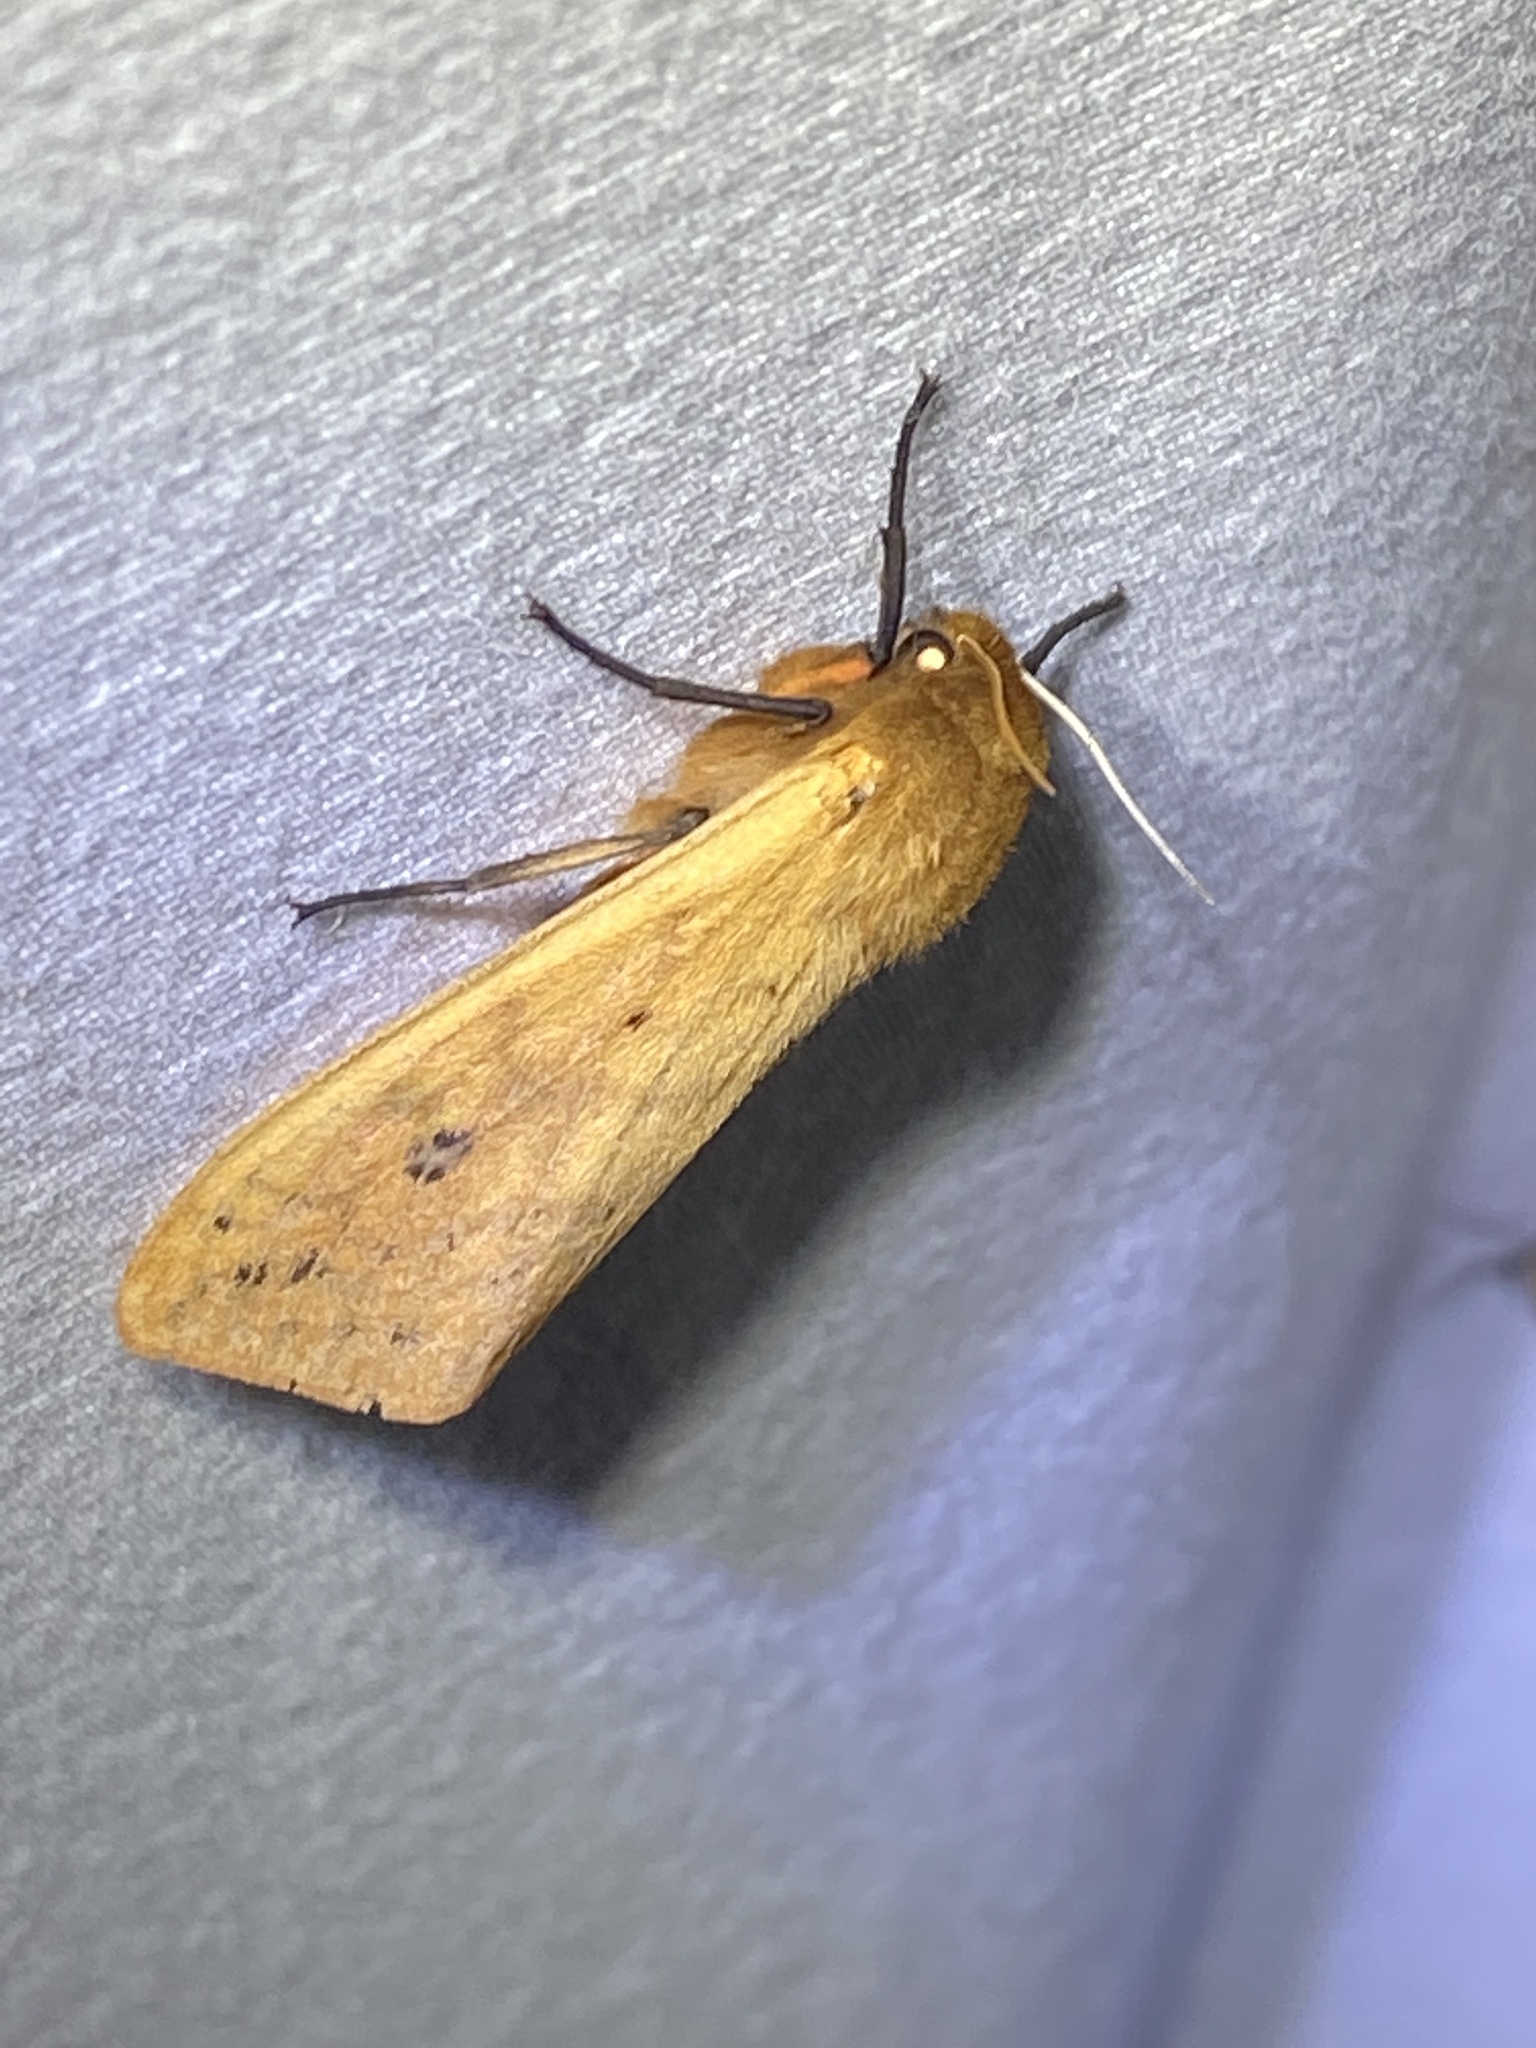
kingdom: Animalia
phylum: Arthropoda
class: Insecta
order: Lepidoptera
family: Erebidae
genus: Pyrrharctia
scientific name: Pyrrharctia isabella
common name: Isabella tiger moth
